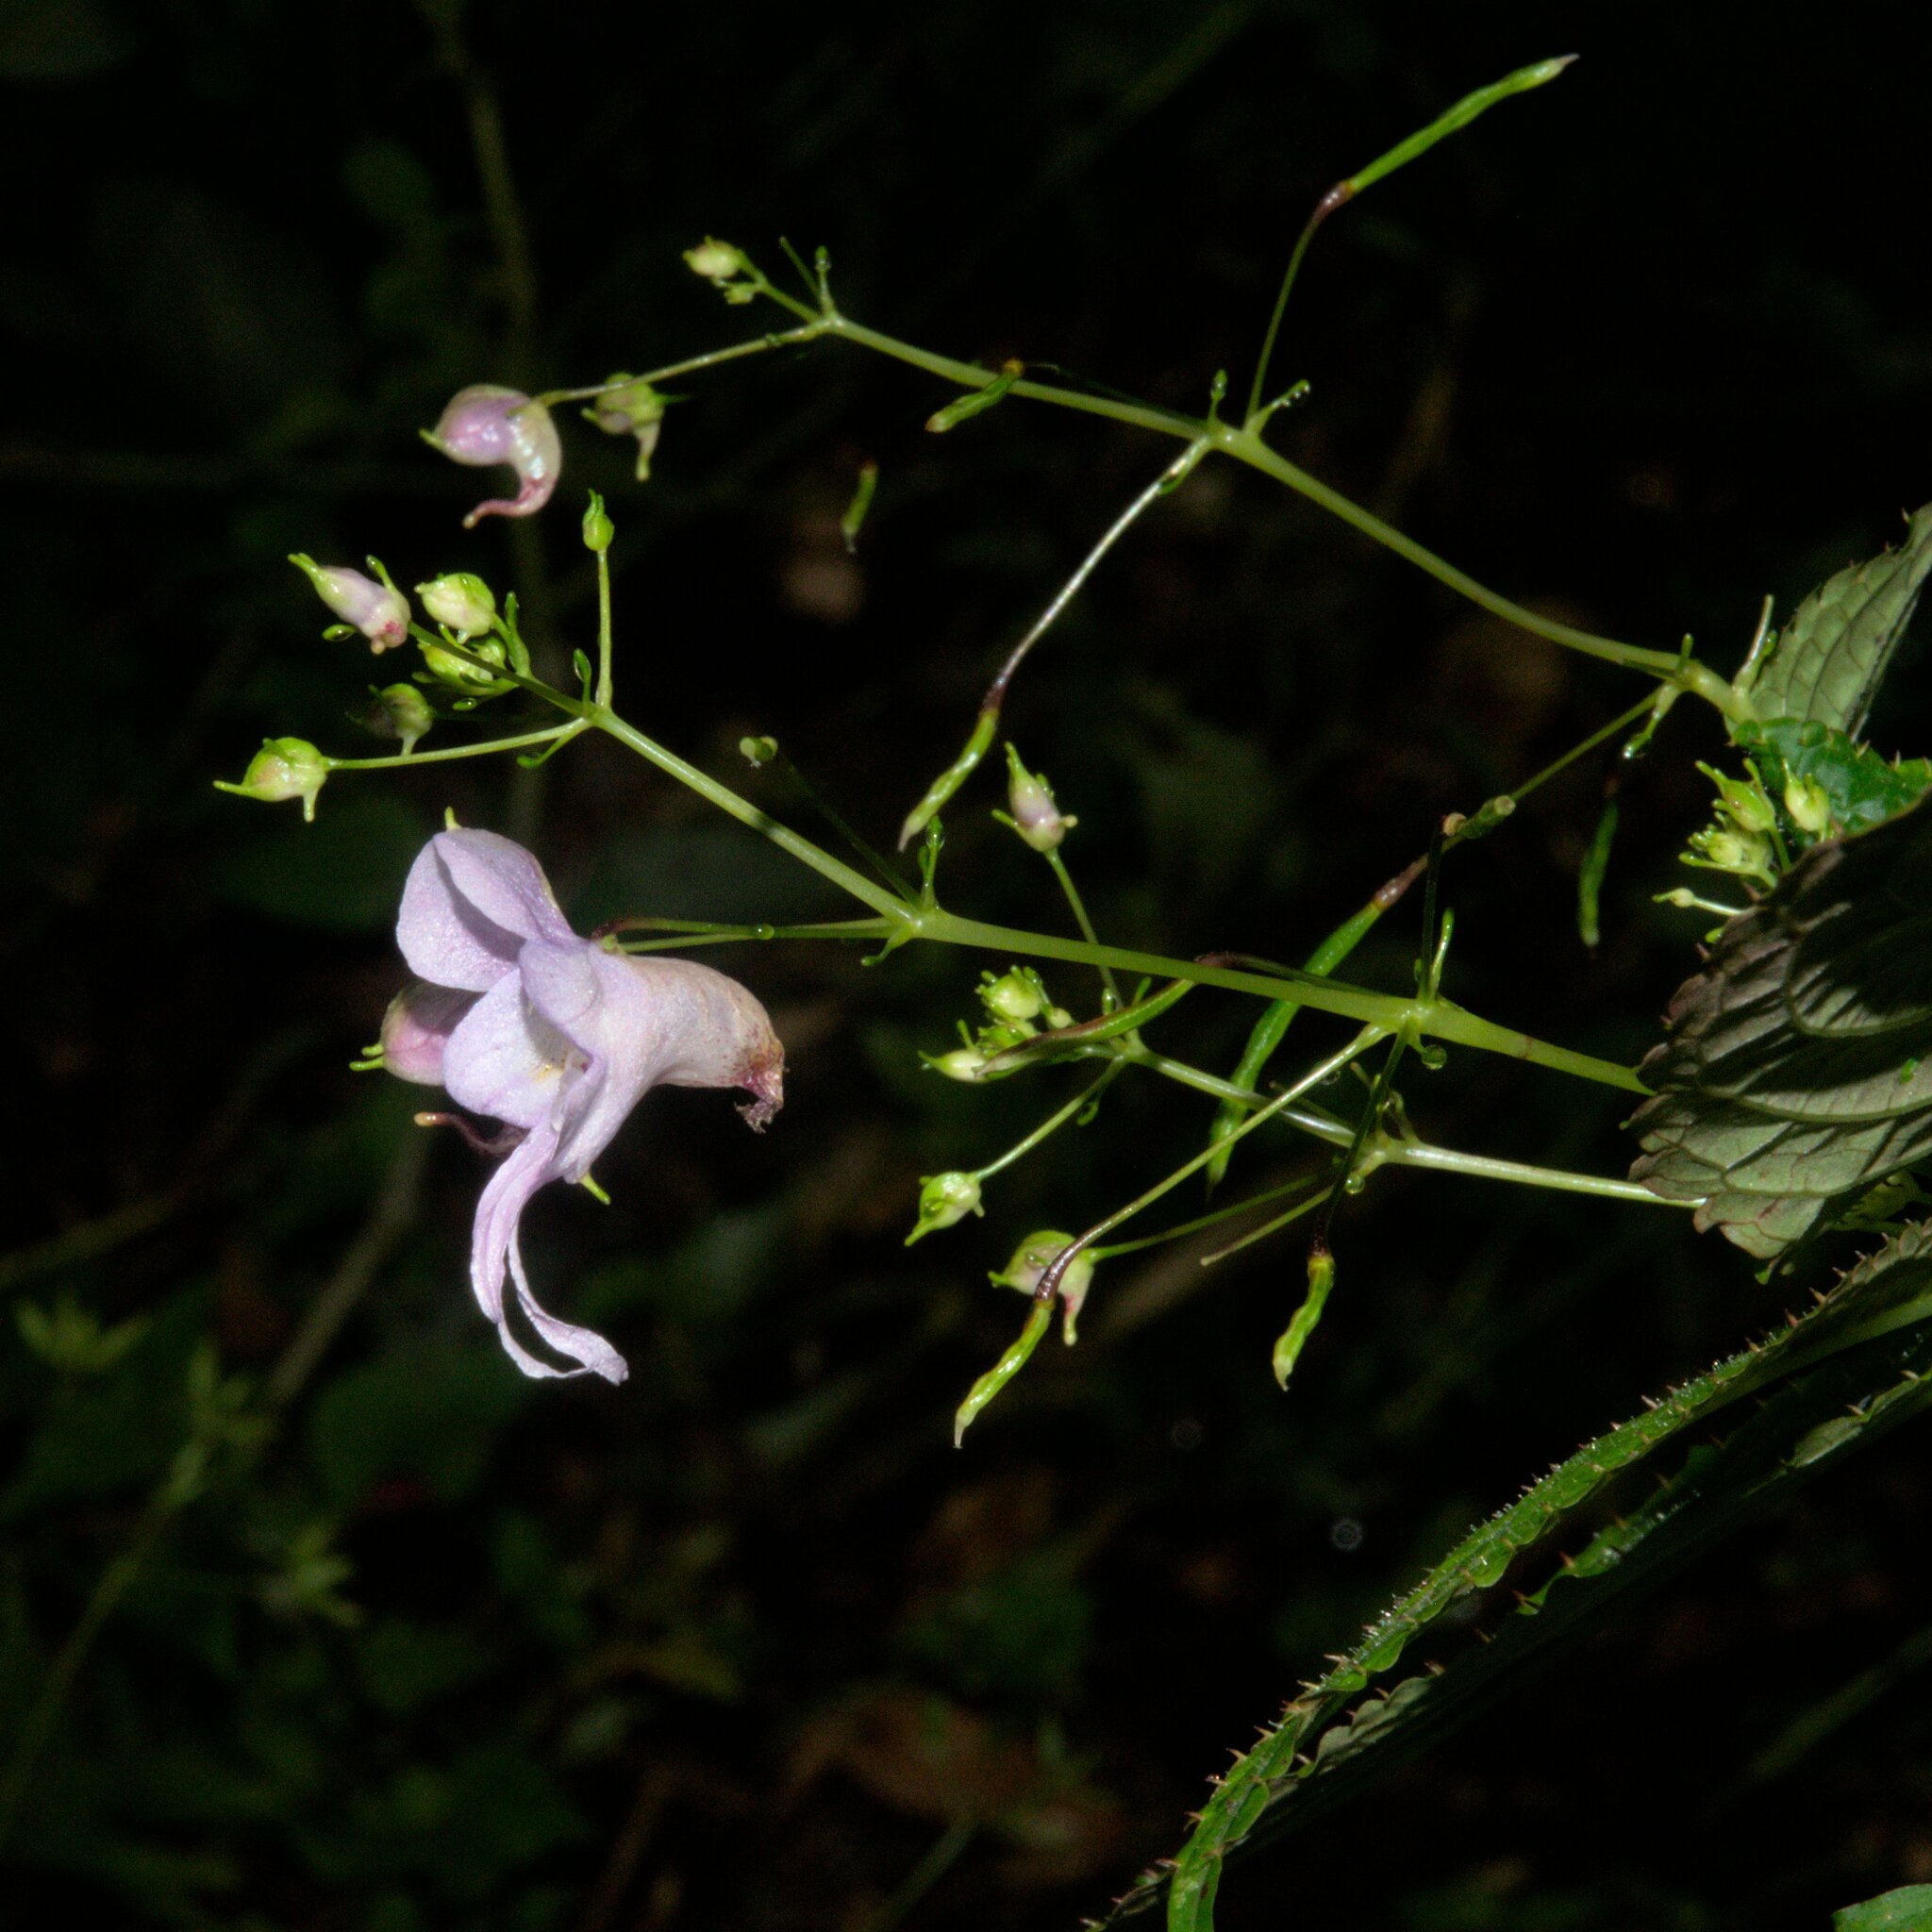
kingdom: Plantae
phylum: Tracheophyta
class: Magnoliopsida
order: Ericales
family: Balsaminaceae
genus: Impatiens
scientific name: Impatiens bicornuta
